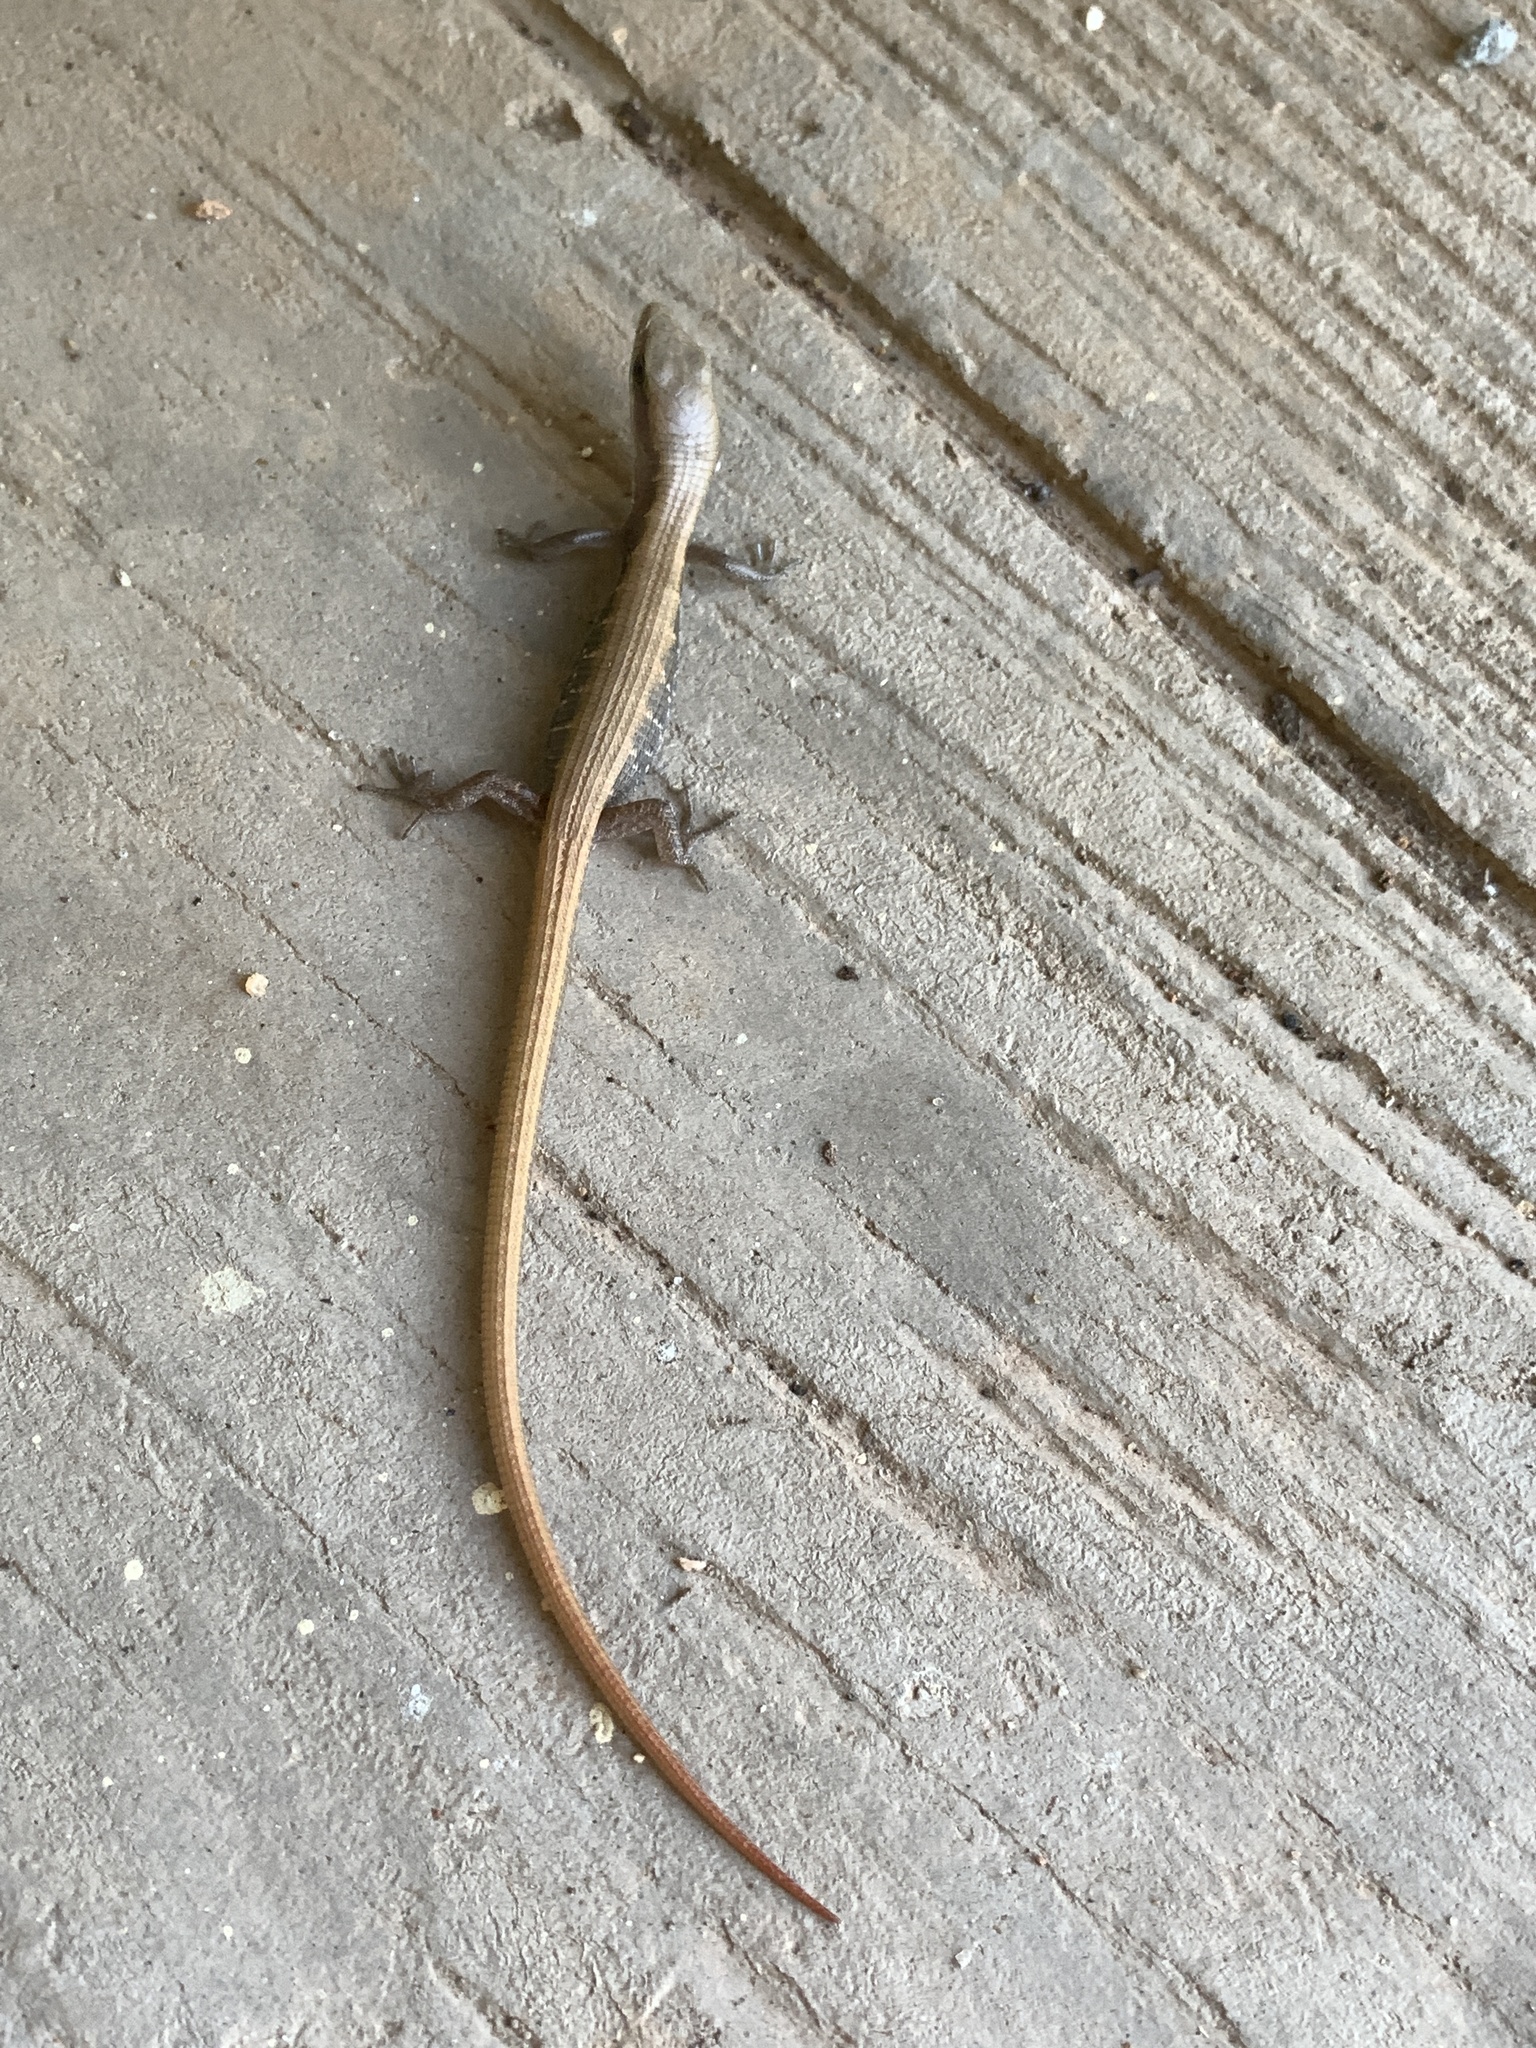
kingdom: Animalia
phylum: Chordata
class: Squamata
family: Anguidae
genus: Elgaria
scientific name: Elgaria multicarinata
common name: Southern alligator lizard
